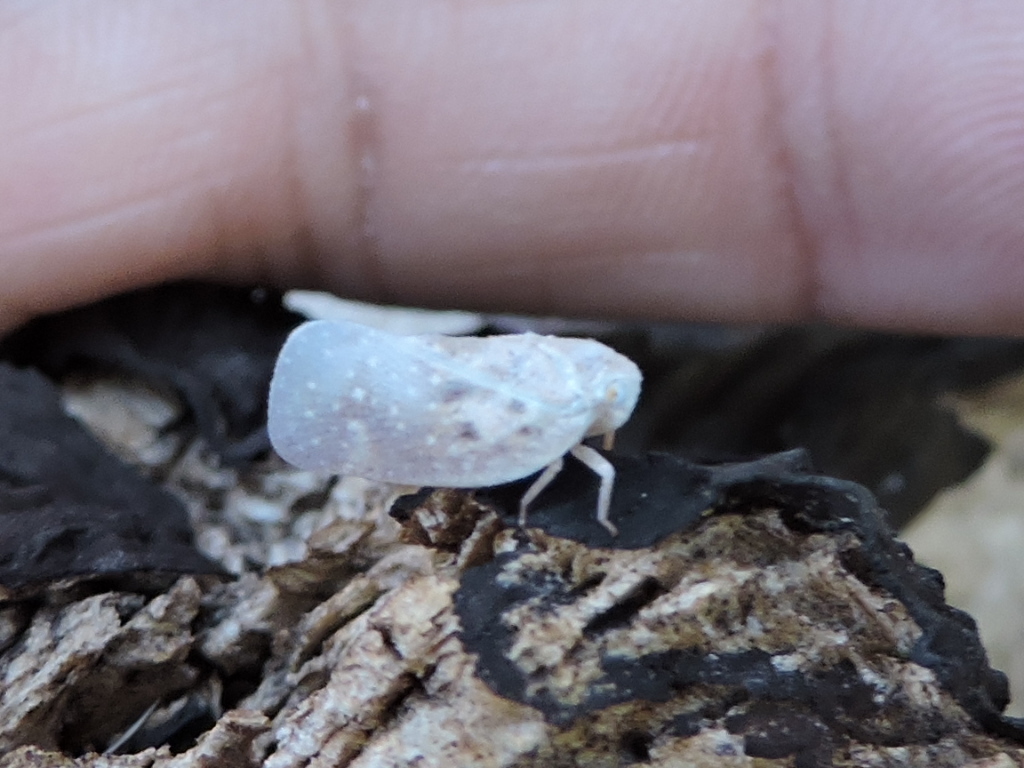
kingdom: Animalia
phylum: Arthropoda
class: Insecta
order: Hemiptera
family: Flatidae
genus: Metcalfa
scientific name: Metcalfa pruinosa
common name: Citrus flatid planthopper
